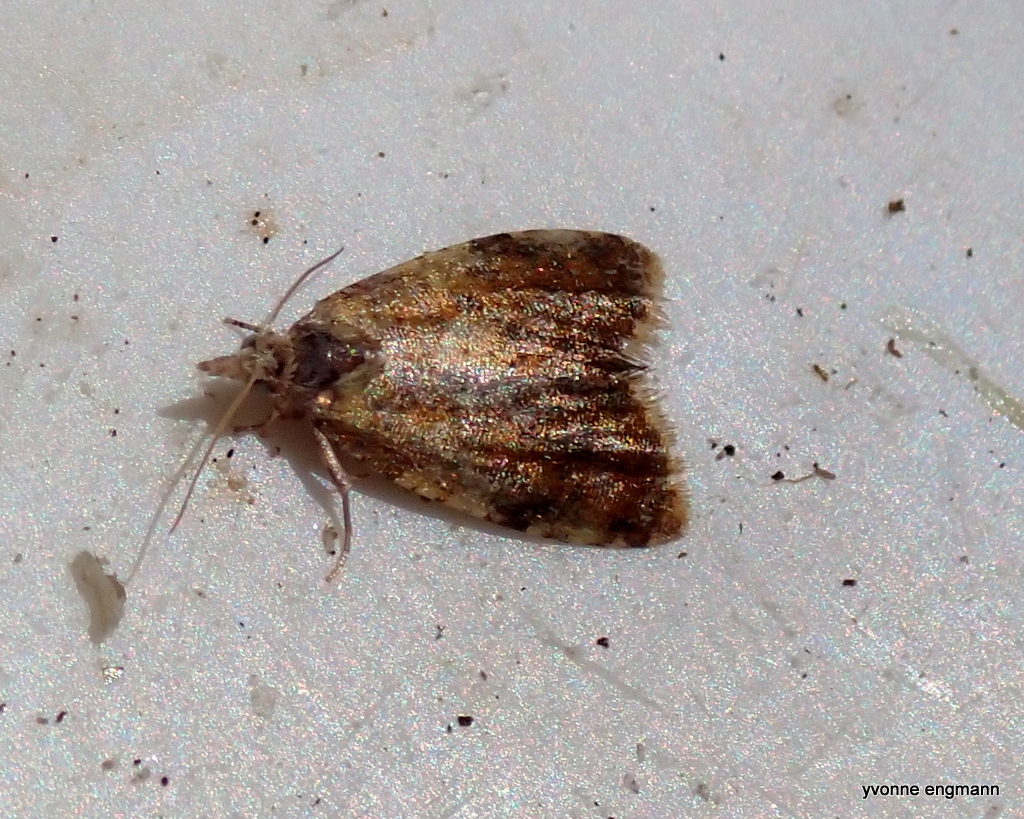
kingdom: Animalia
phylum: Arthropoda
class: Insecta
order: Lepidoptera
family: Tortricidae
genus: Pseudargyrotoza
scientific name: Pseudargyrotoza conwagana
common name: Yellow-spot twist
